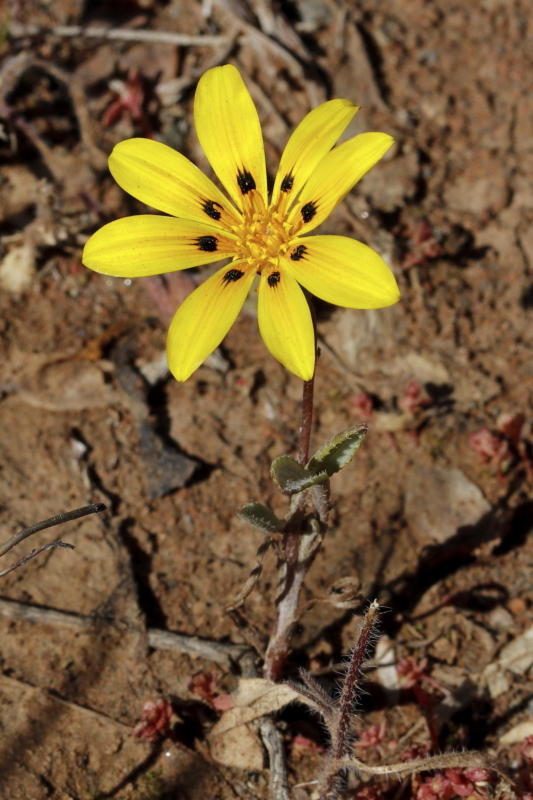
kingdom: Plantae
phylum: Tracheophyta
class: Magnoliopsida
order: Asterales
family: Asteraceae
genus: Gazania
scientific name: Gazania lichtensteinii
